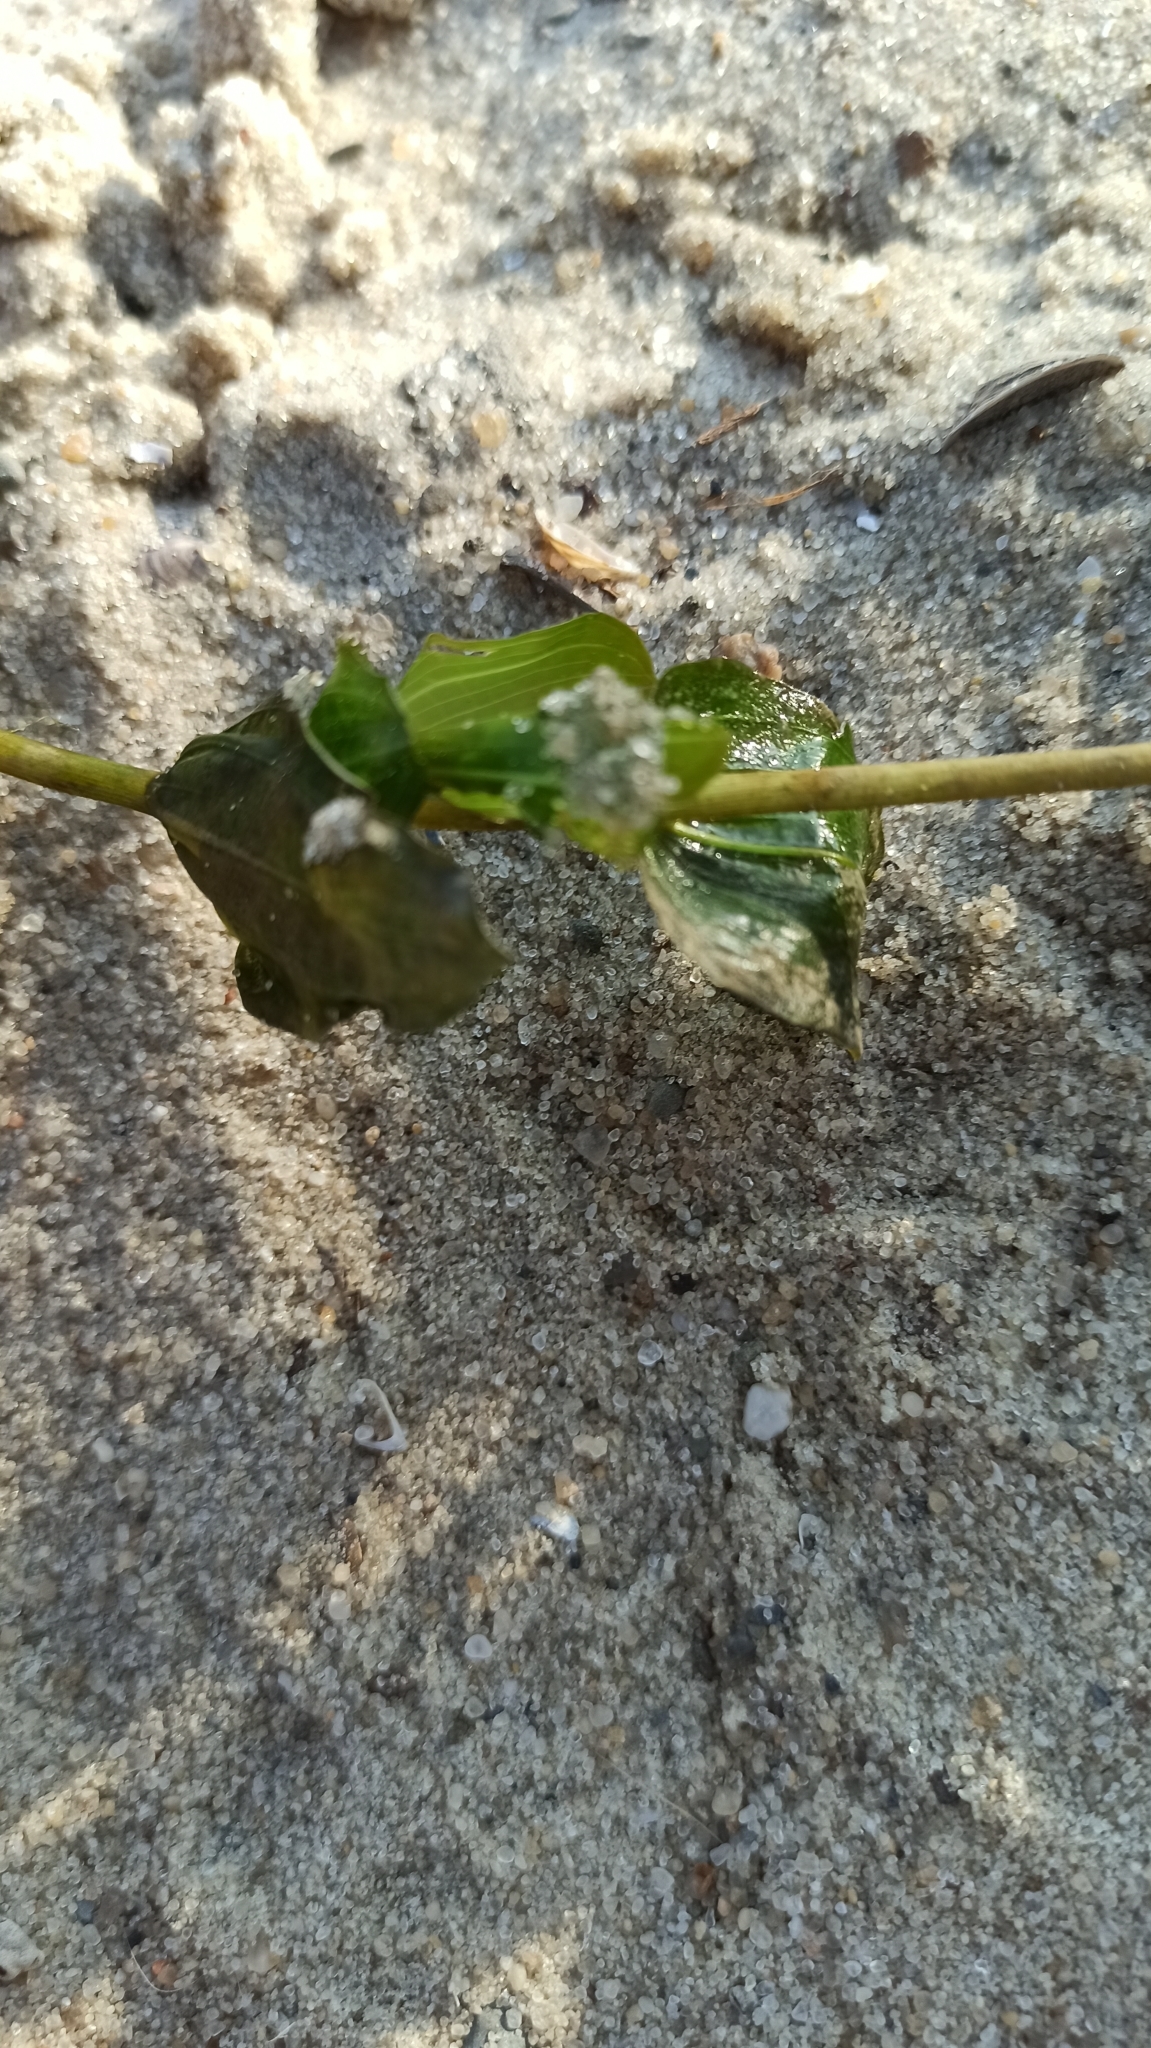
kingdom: Plantae
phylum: Tracheophyta
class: Liliopsida
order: Alismatales
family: Potamogetonaceae
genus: Potamogeton
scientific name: Potamogeton perfoliatus
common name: Perfoliate pondweed
